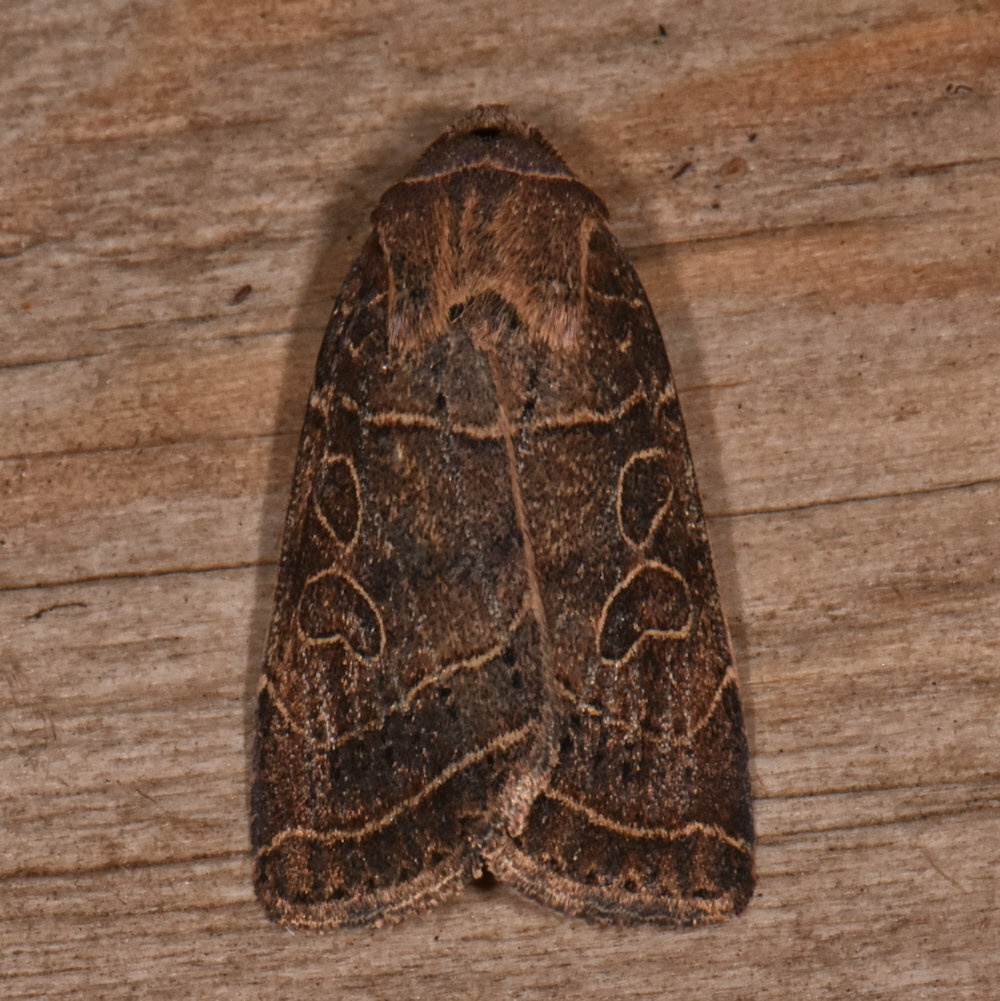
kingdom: Animalia
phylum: Arthropoda
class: Insecta
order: Lepidoptera
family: Noctuidae
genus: Orthodes
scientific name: Orthodes majuscula
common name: Rustic quaker
